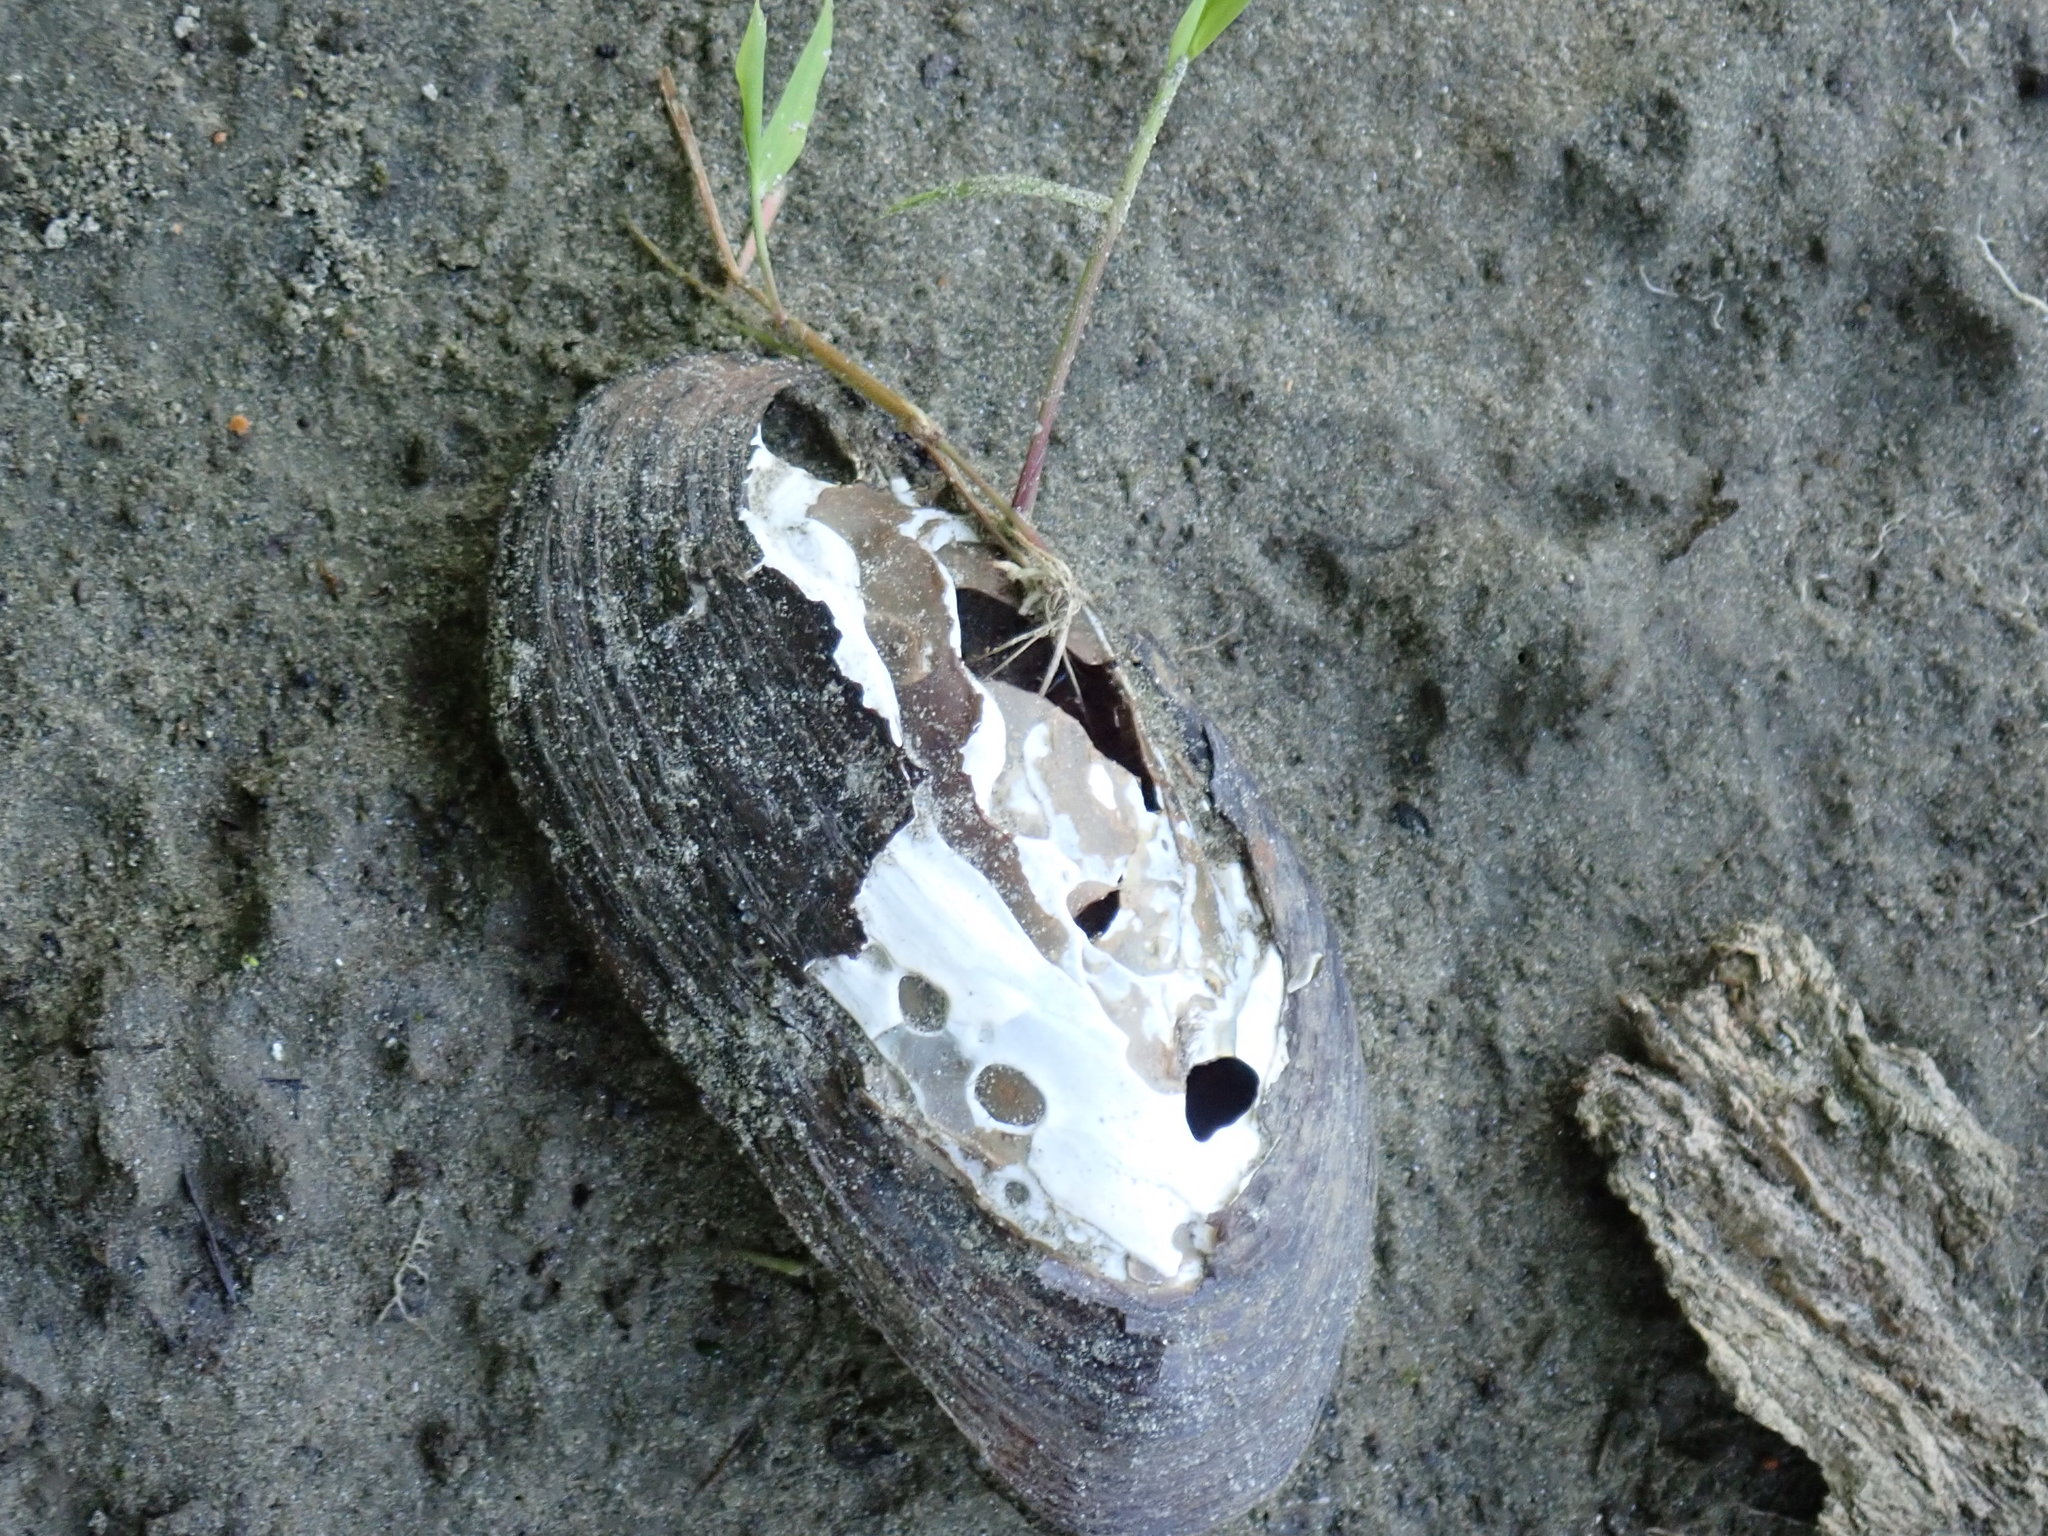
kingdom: Animalia
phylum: Mollusca
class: Bivalvia
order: Unionida
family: Unionidae
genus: Elliptio
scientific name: Elliptio complanata
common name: Eastern elliptio
